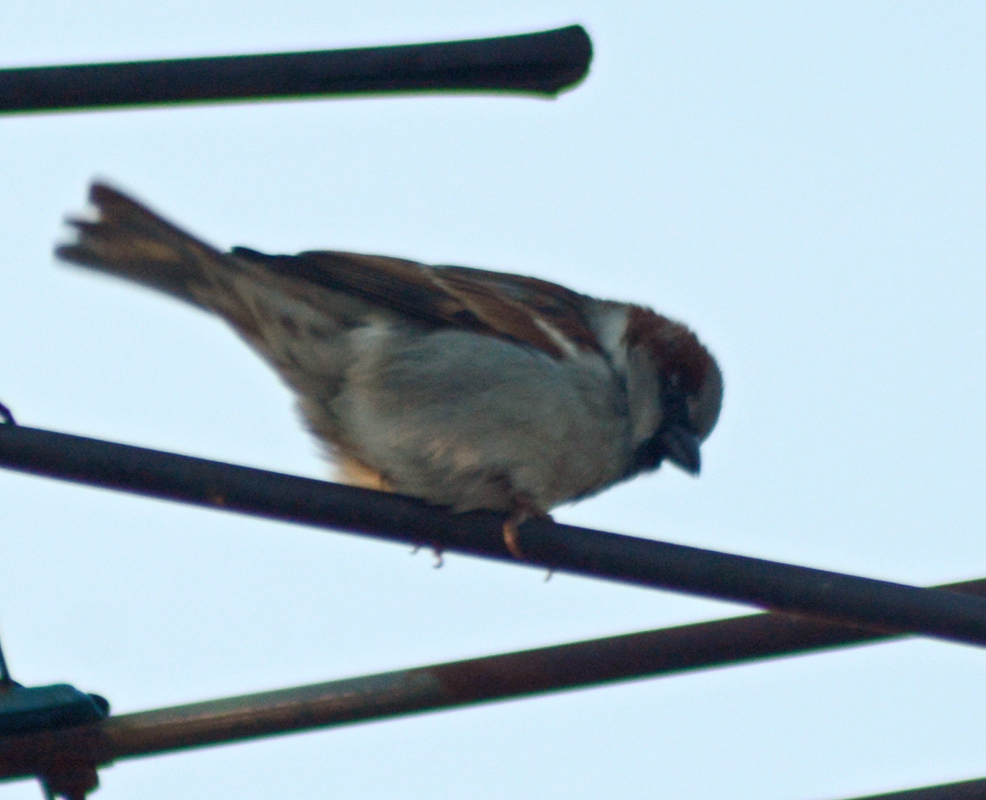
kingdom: Animalia
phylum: Chordata
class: Aves
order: Passeriformes
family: Passeridae
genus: Passer
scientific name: Passer domesticus
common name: House sparrow
